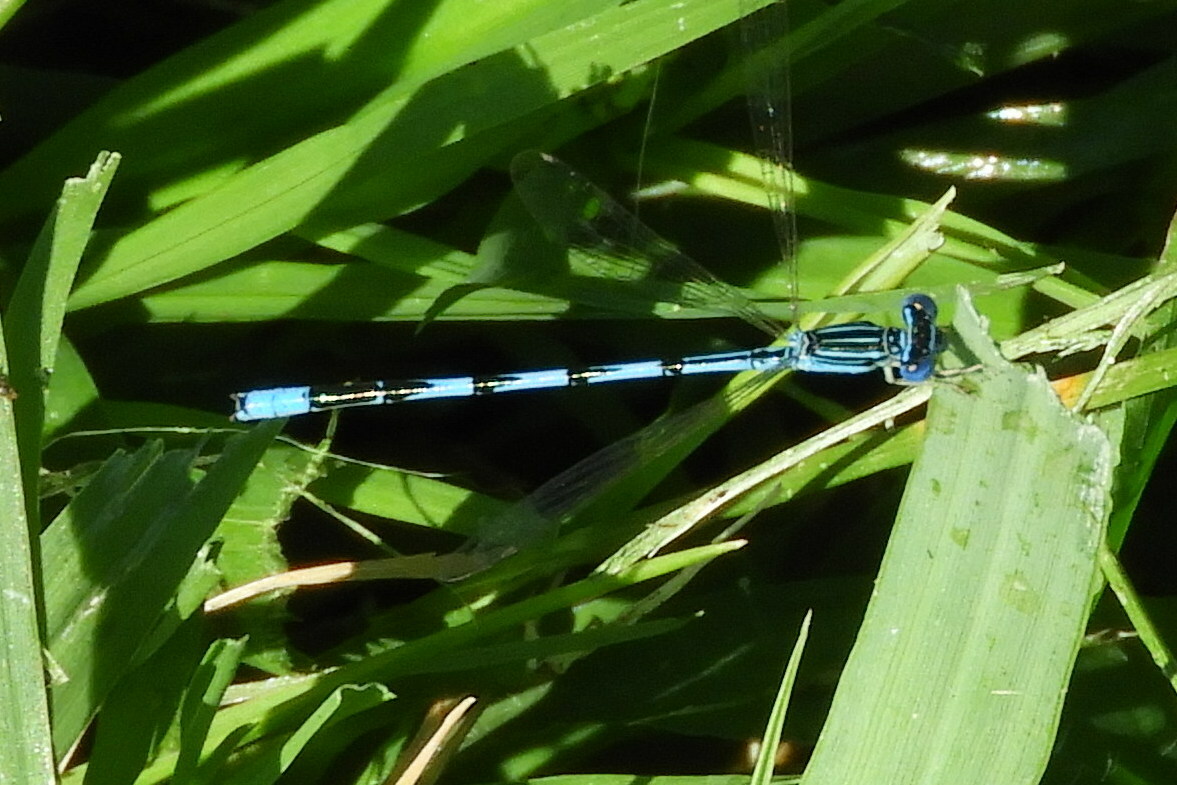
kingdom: Animalia
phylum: Arthropoda
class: Insecta
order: Odonata
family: Coenagrionidae
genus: Enallagma
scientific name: Enallagma basidens
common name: Double-striped bluet
